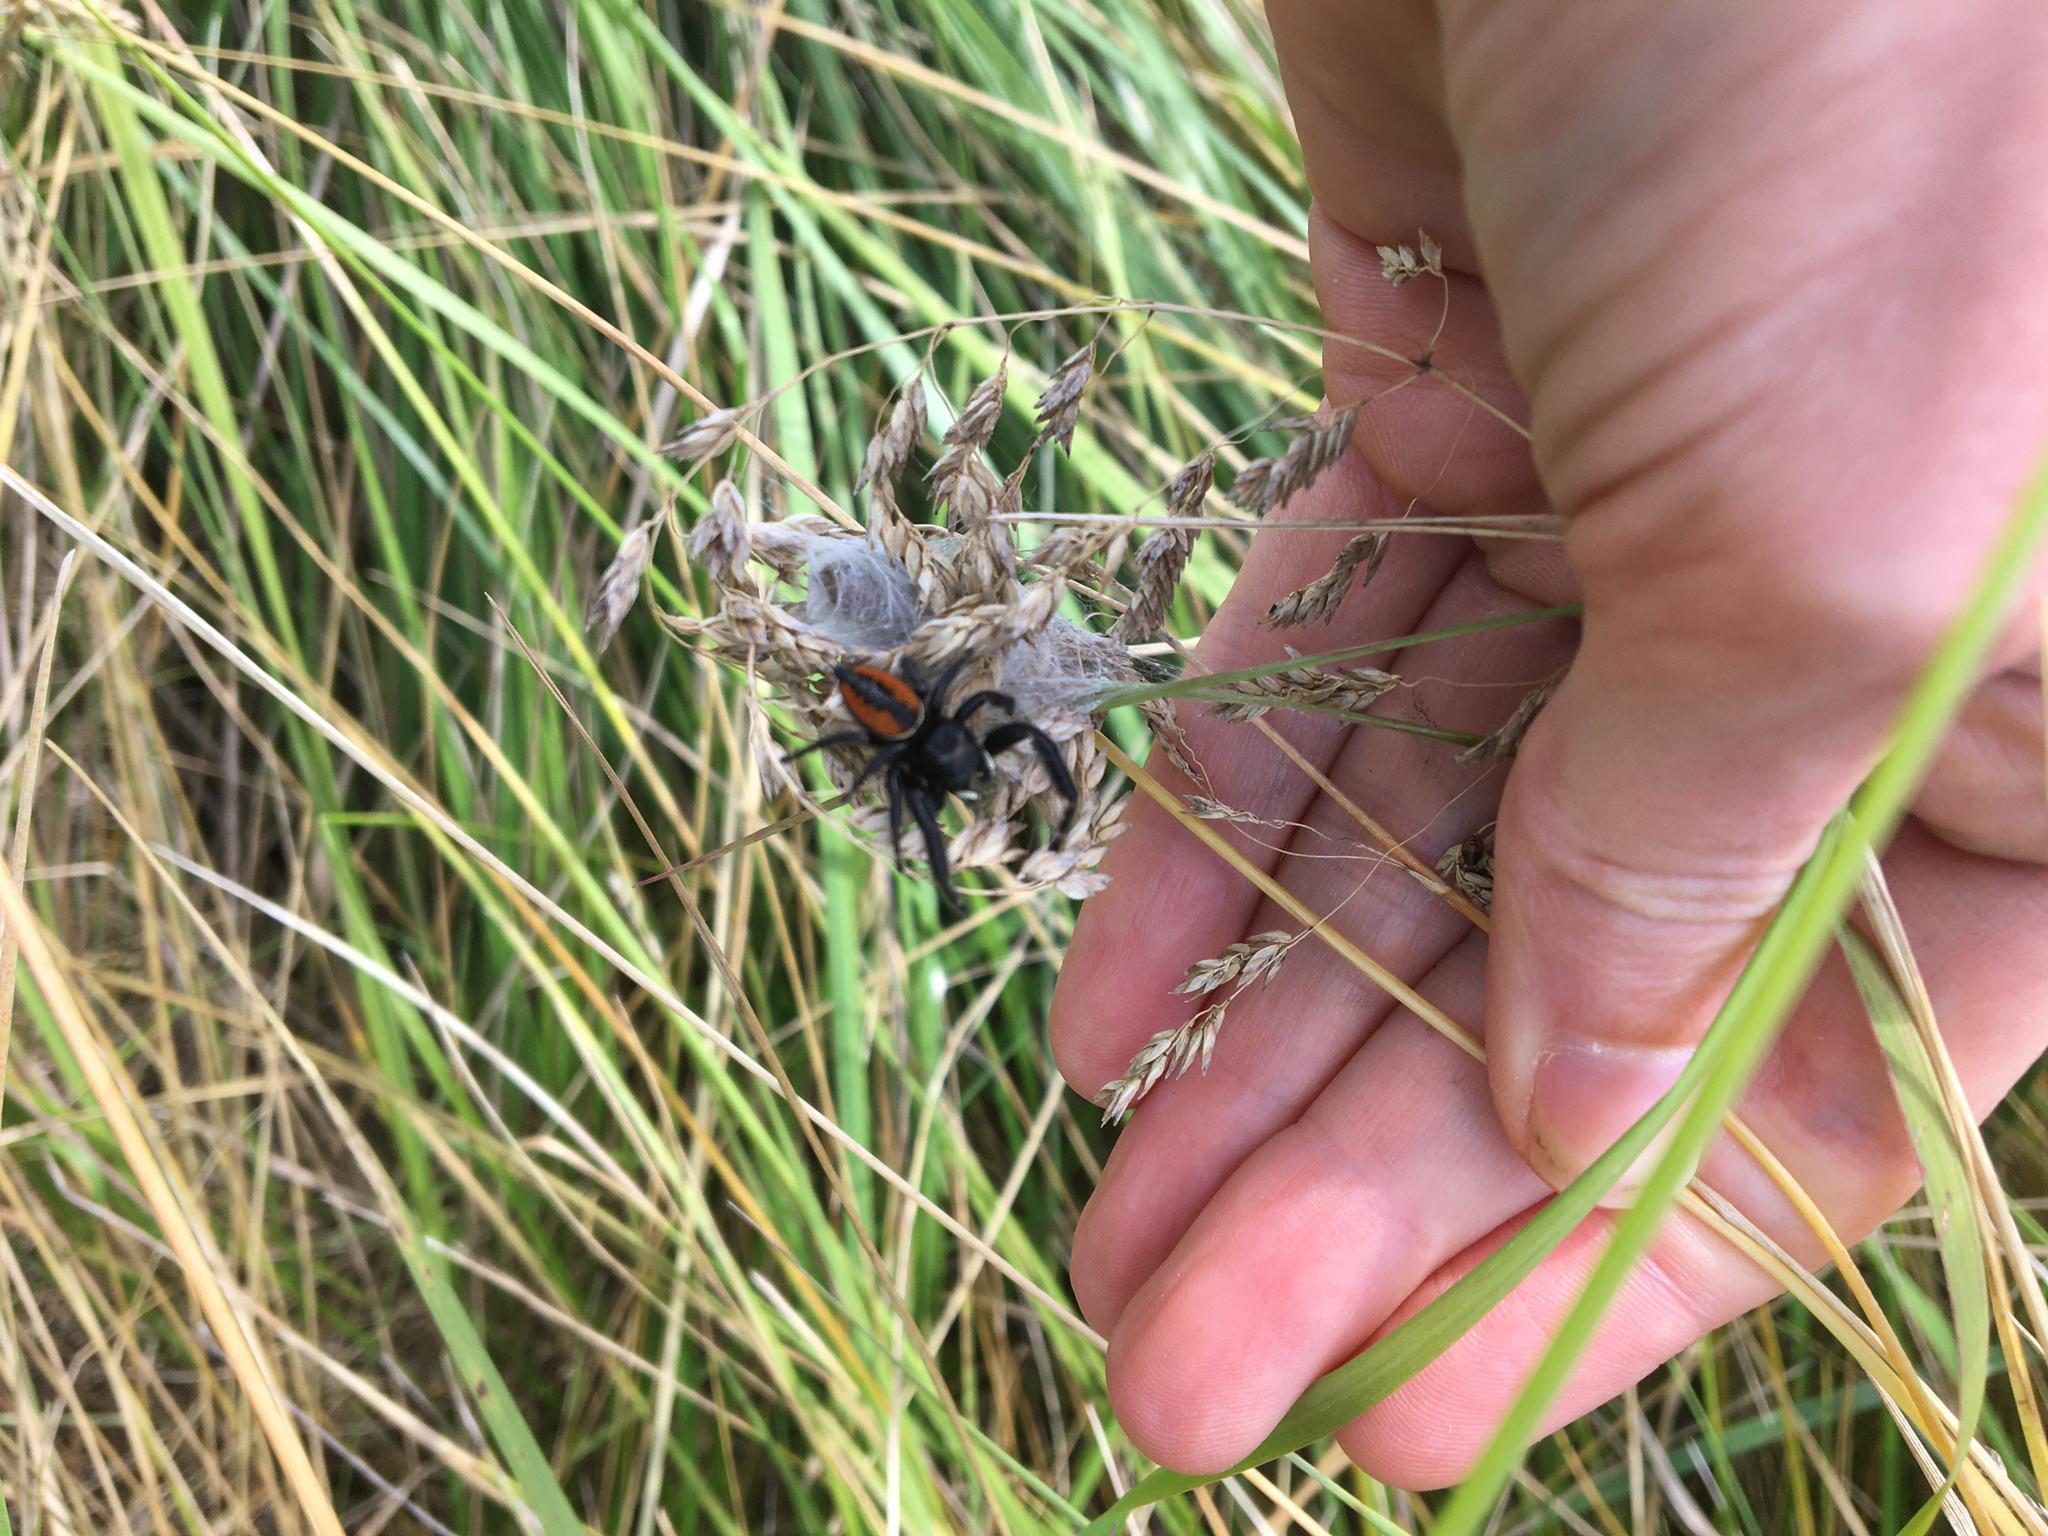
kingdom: Animalia
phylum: Arthropoda
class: Arachnida
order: Araneae
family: Salticidae
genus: Phidippus
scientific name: Phidippus clarus
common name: Brilliant jumping spider
